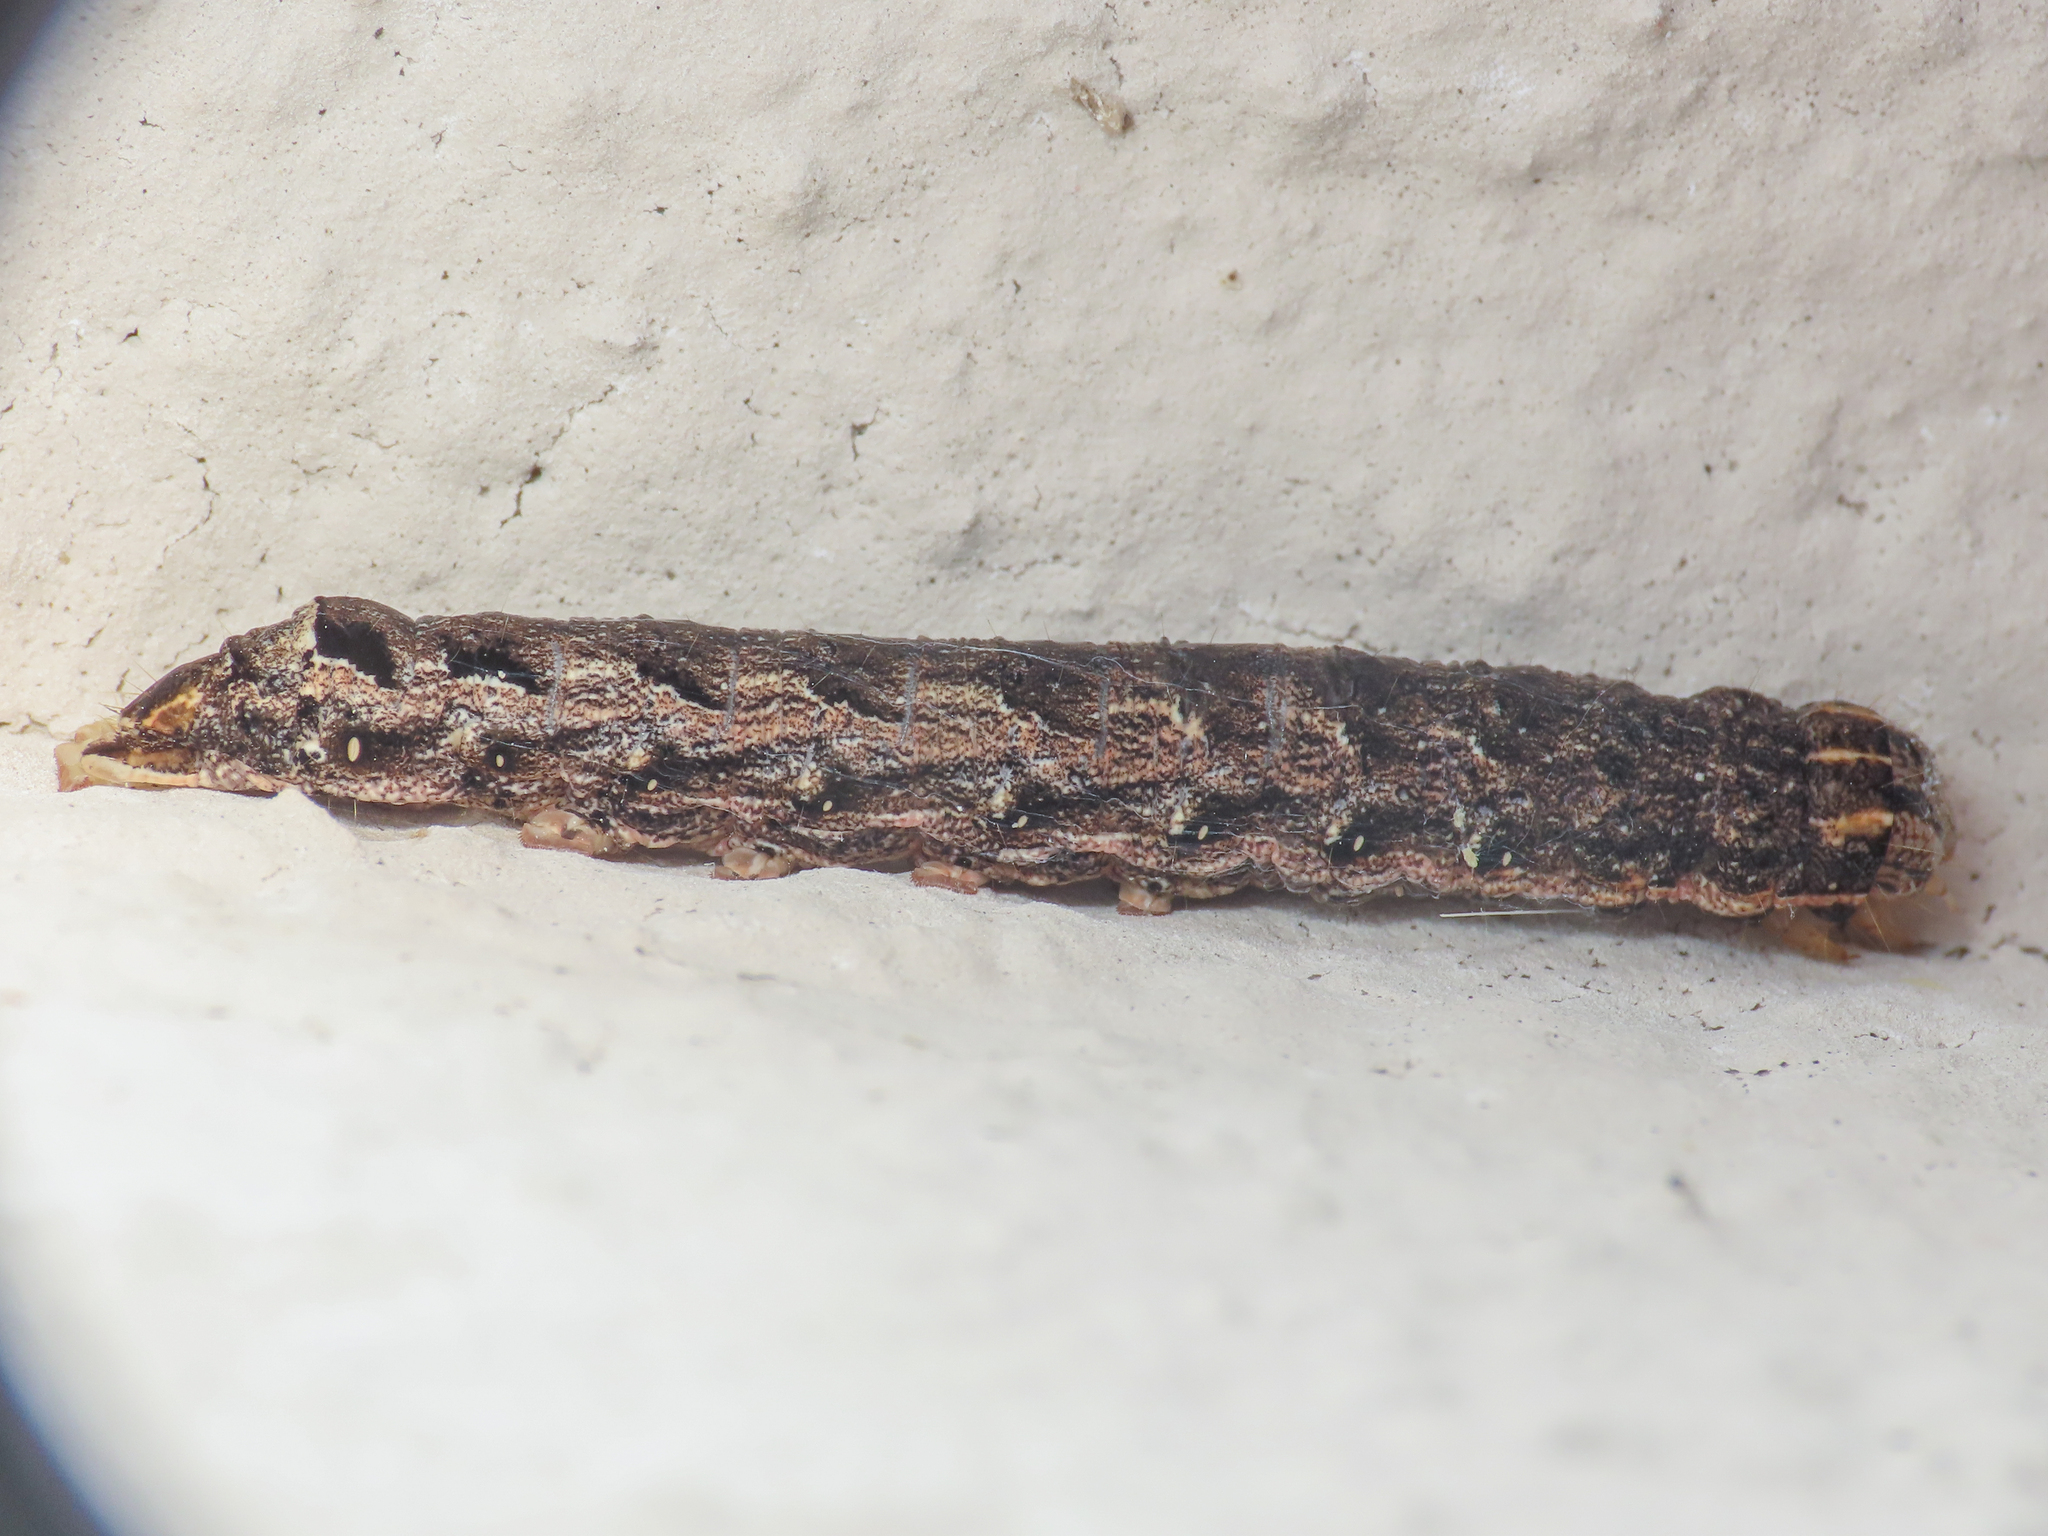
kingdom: Animalia
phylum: Arthropoda
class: Insecta
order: Lepidoptera
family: Noctuidae
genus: Noctua
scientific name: Noctua comes
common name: Lesser yellow underwing
